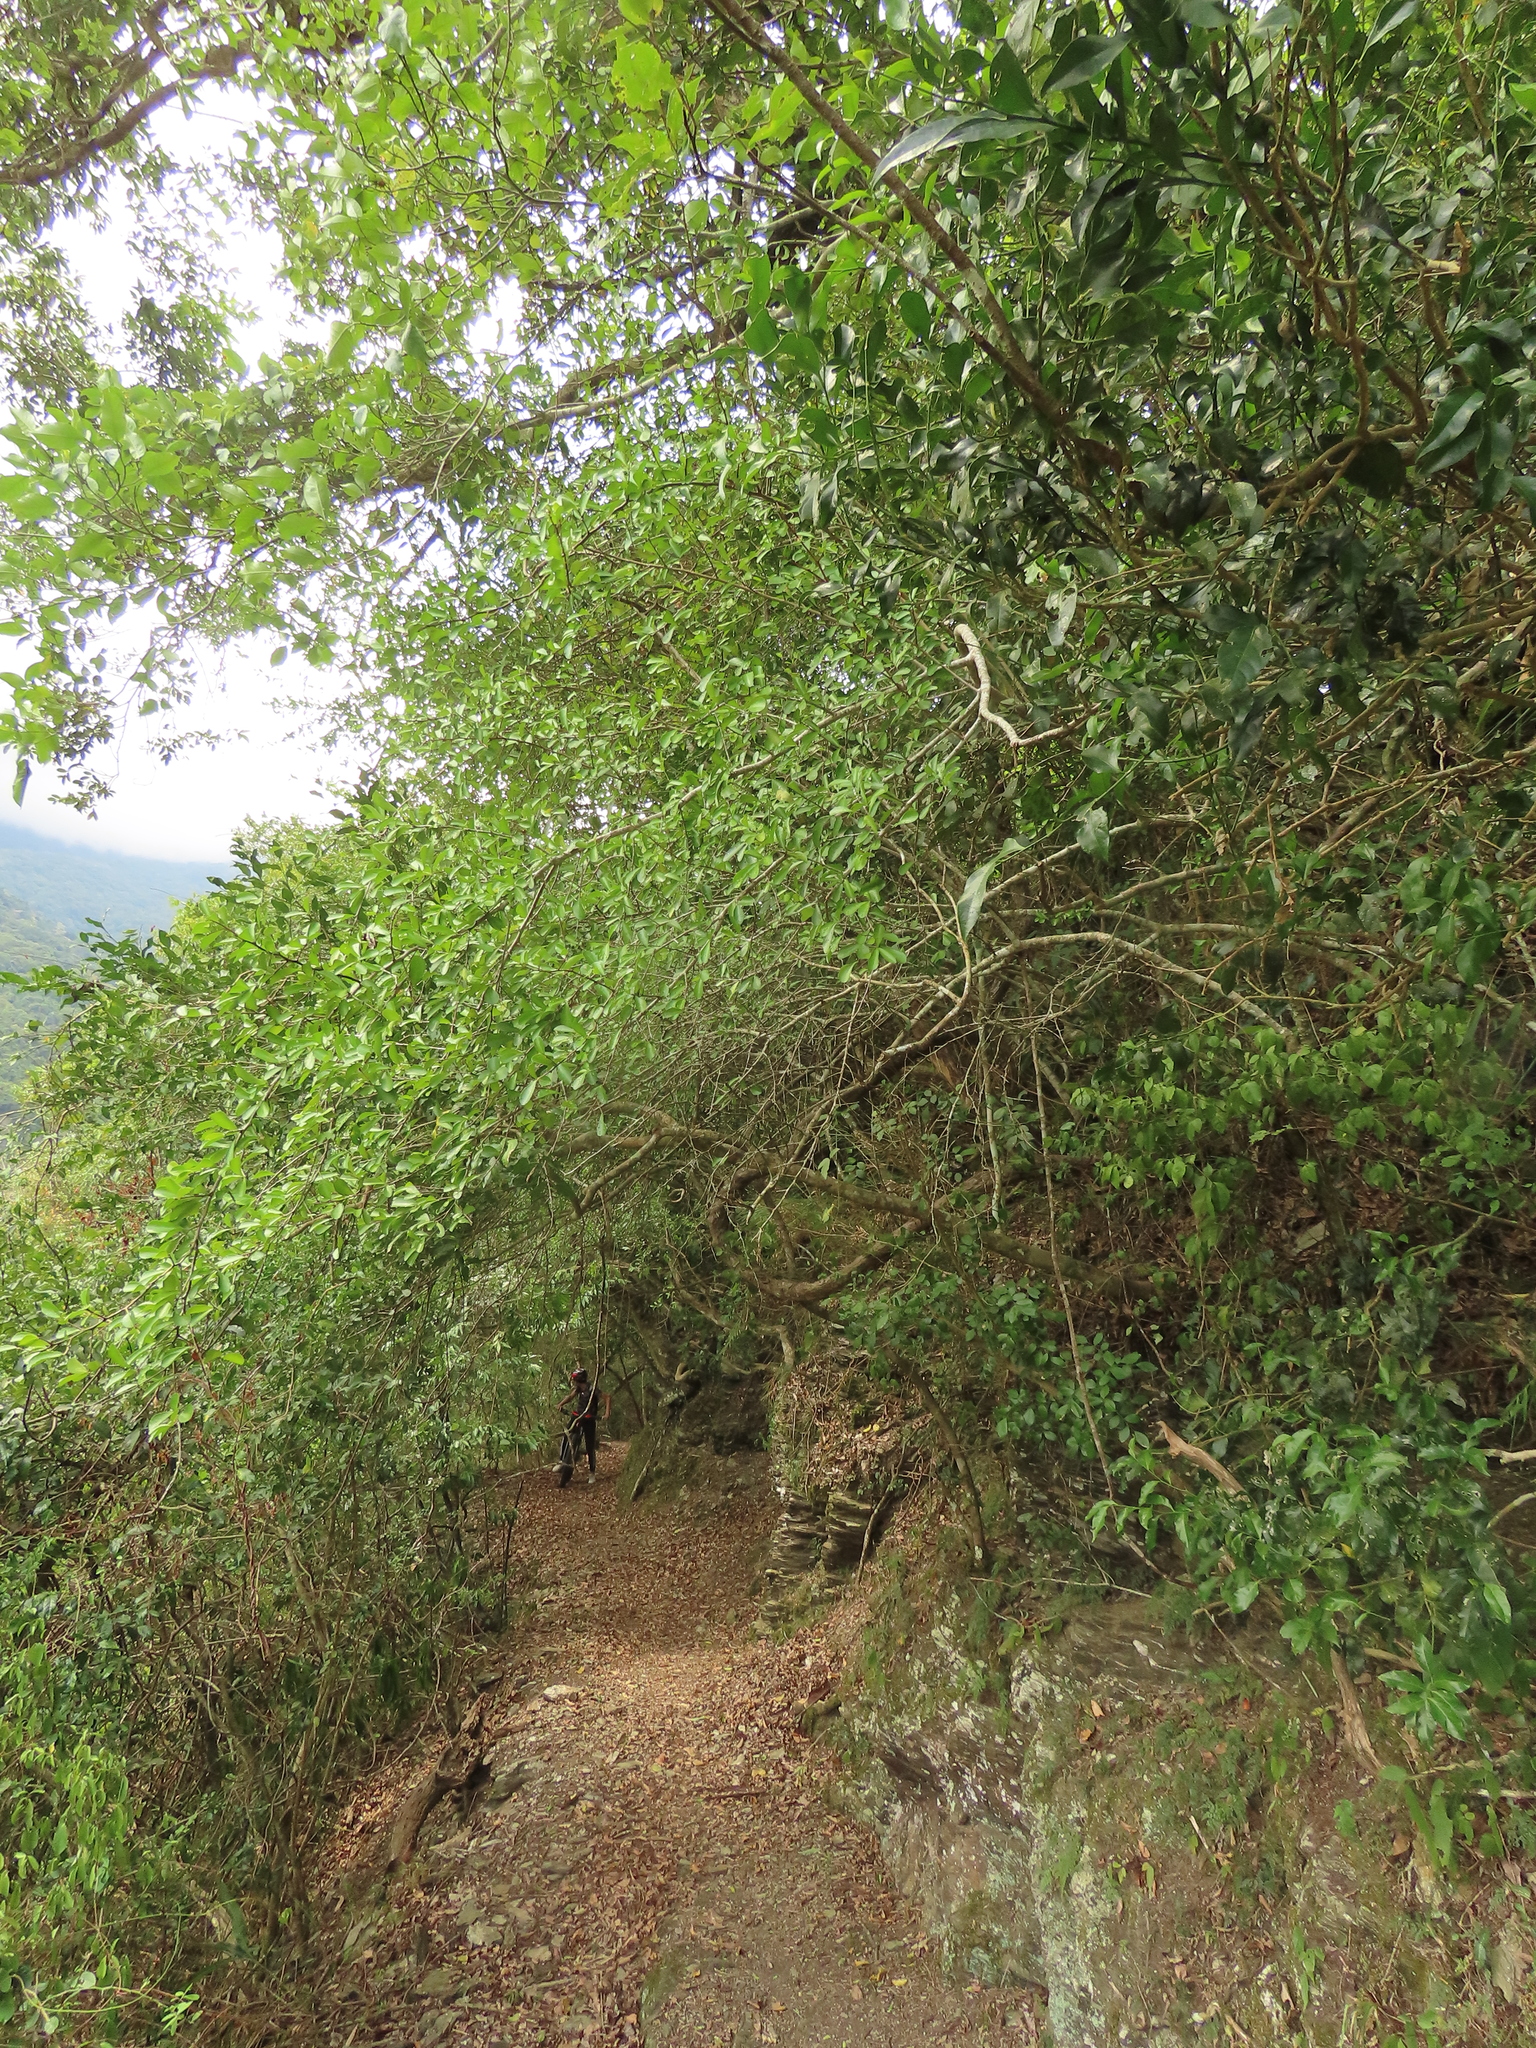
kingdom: Plantae
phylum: Tracheophyta
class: Magnoliopsida
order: Celastrales
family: Celastraceae
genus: Gymnosporia
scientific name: Gymnosporia diversifolia
